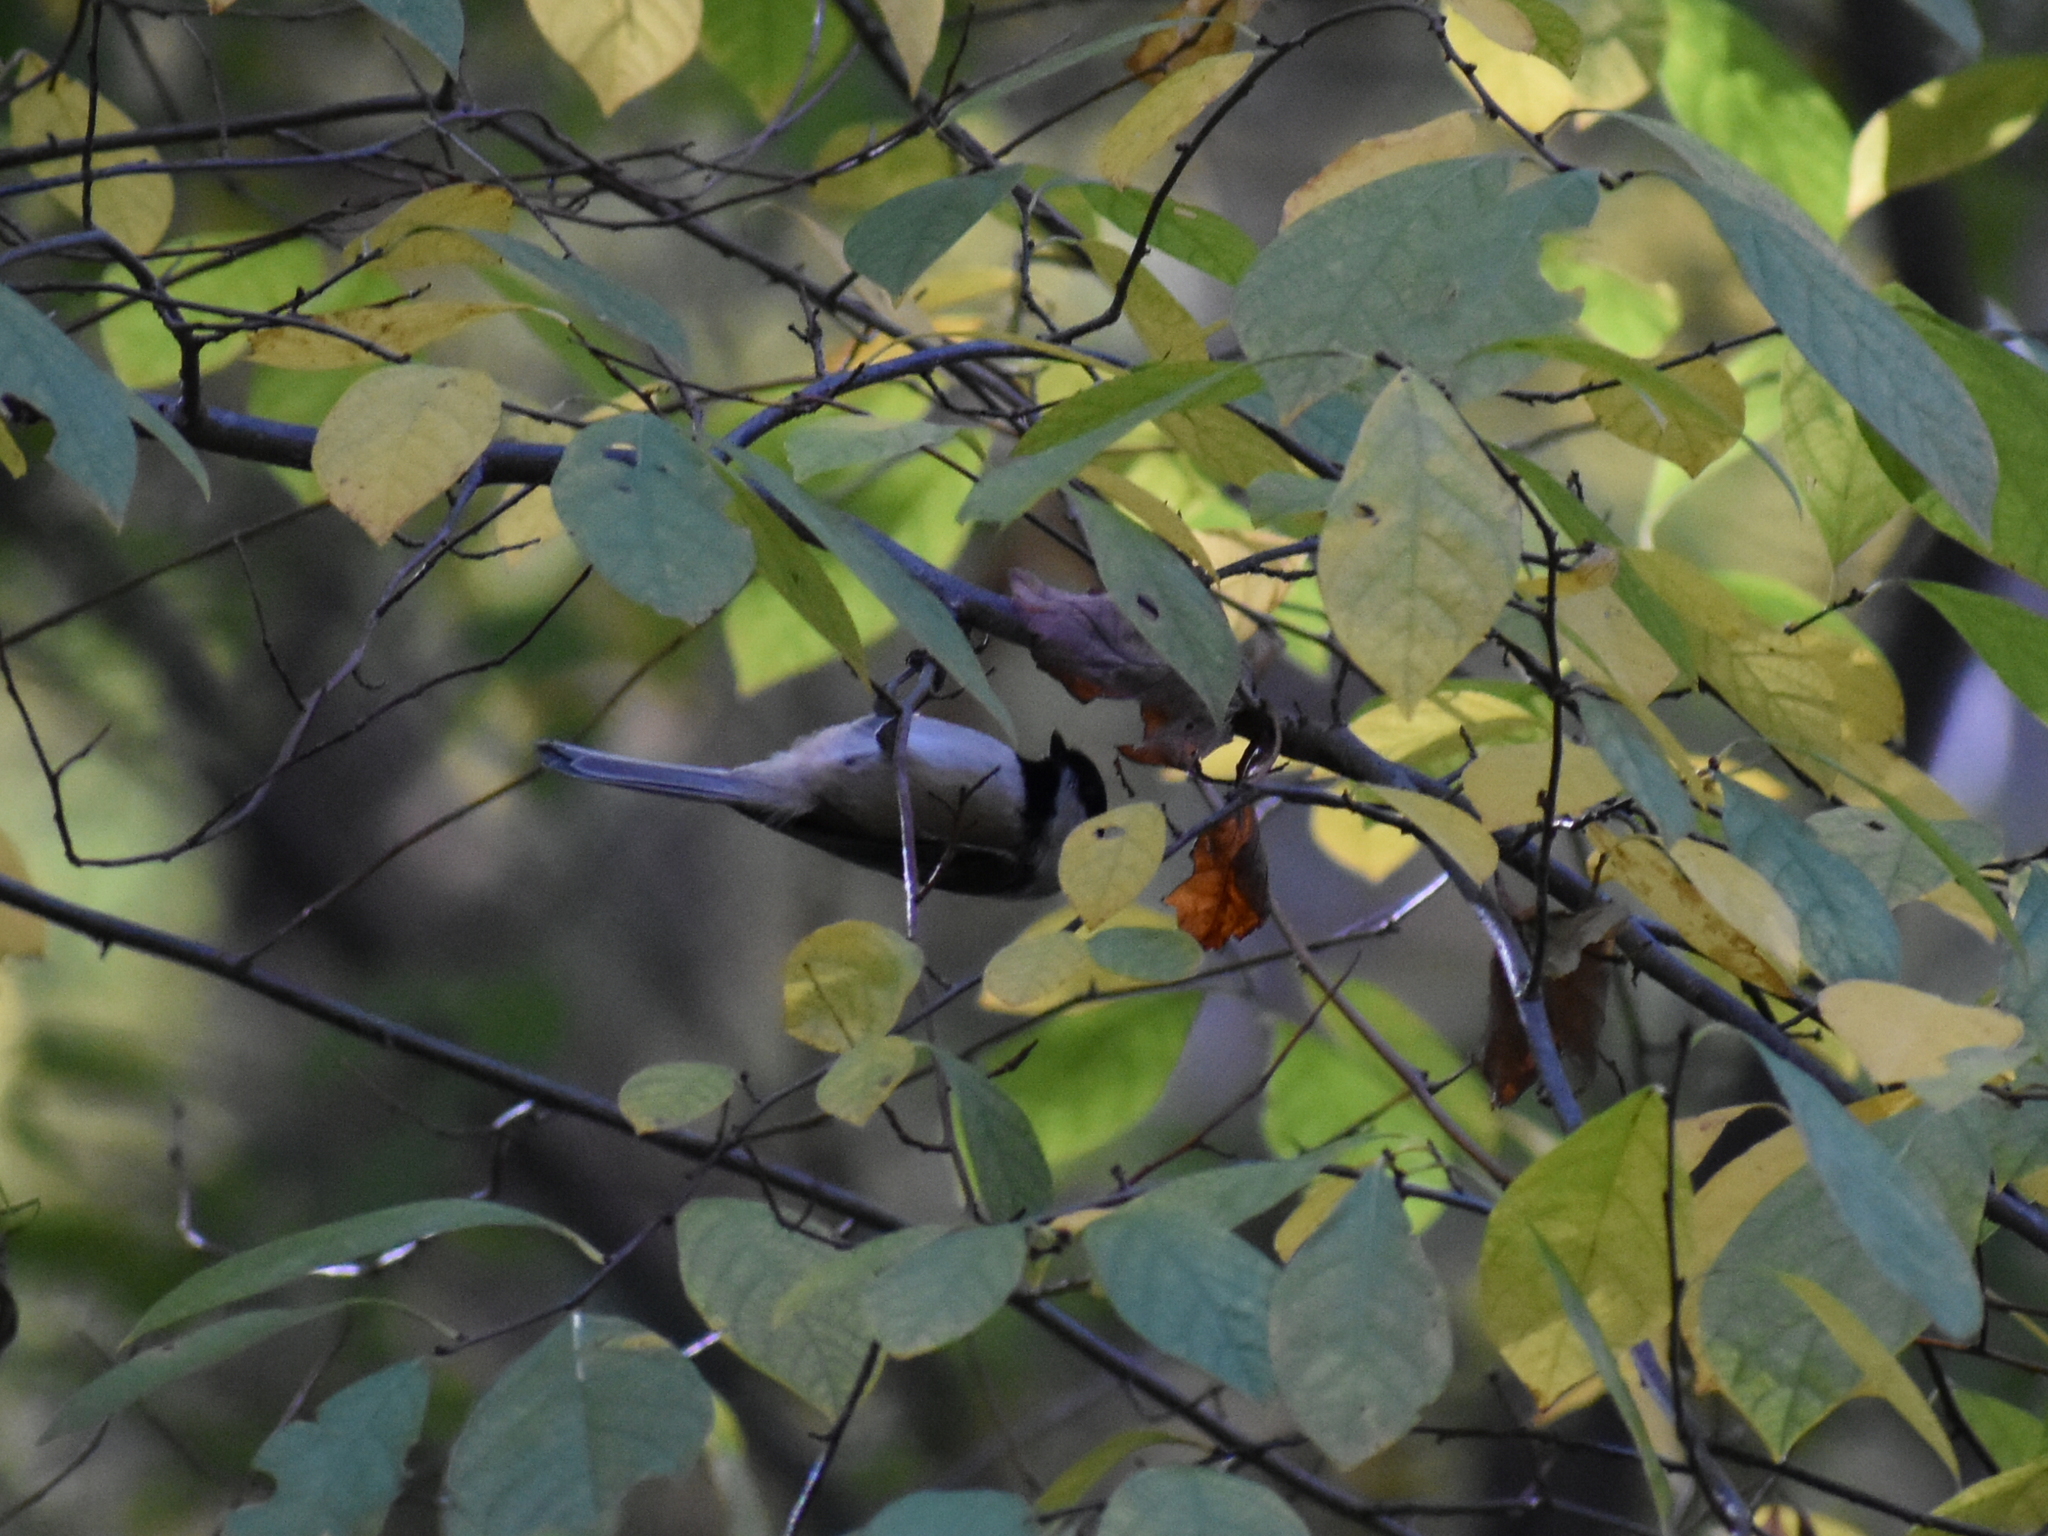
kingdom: Animalia
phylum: Chordata
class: Aves
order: Passeriformes
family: Paridae
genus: Poecile
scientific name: Poecile atricapillus
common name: Black-capped chickadee
